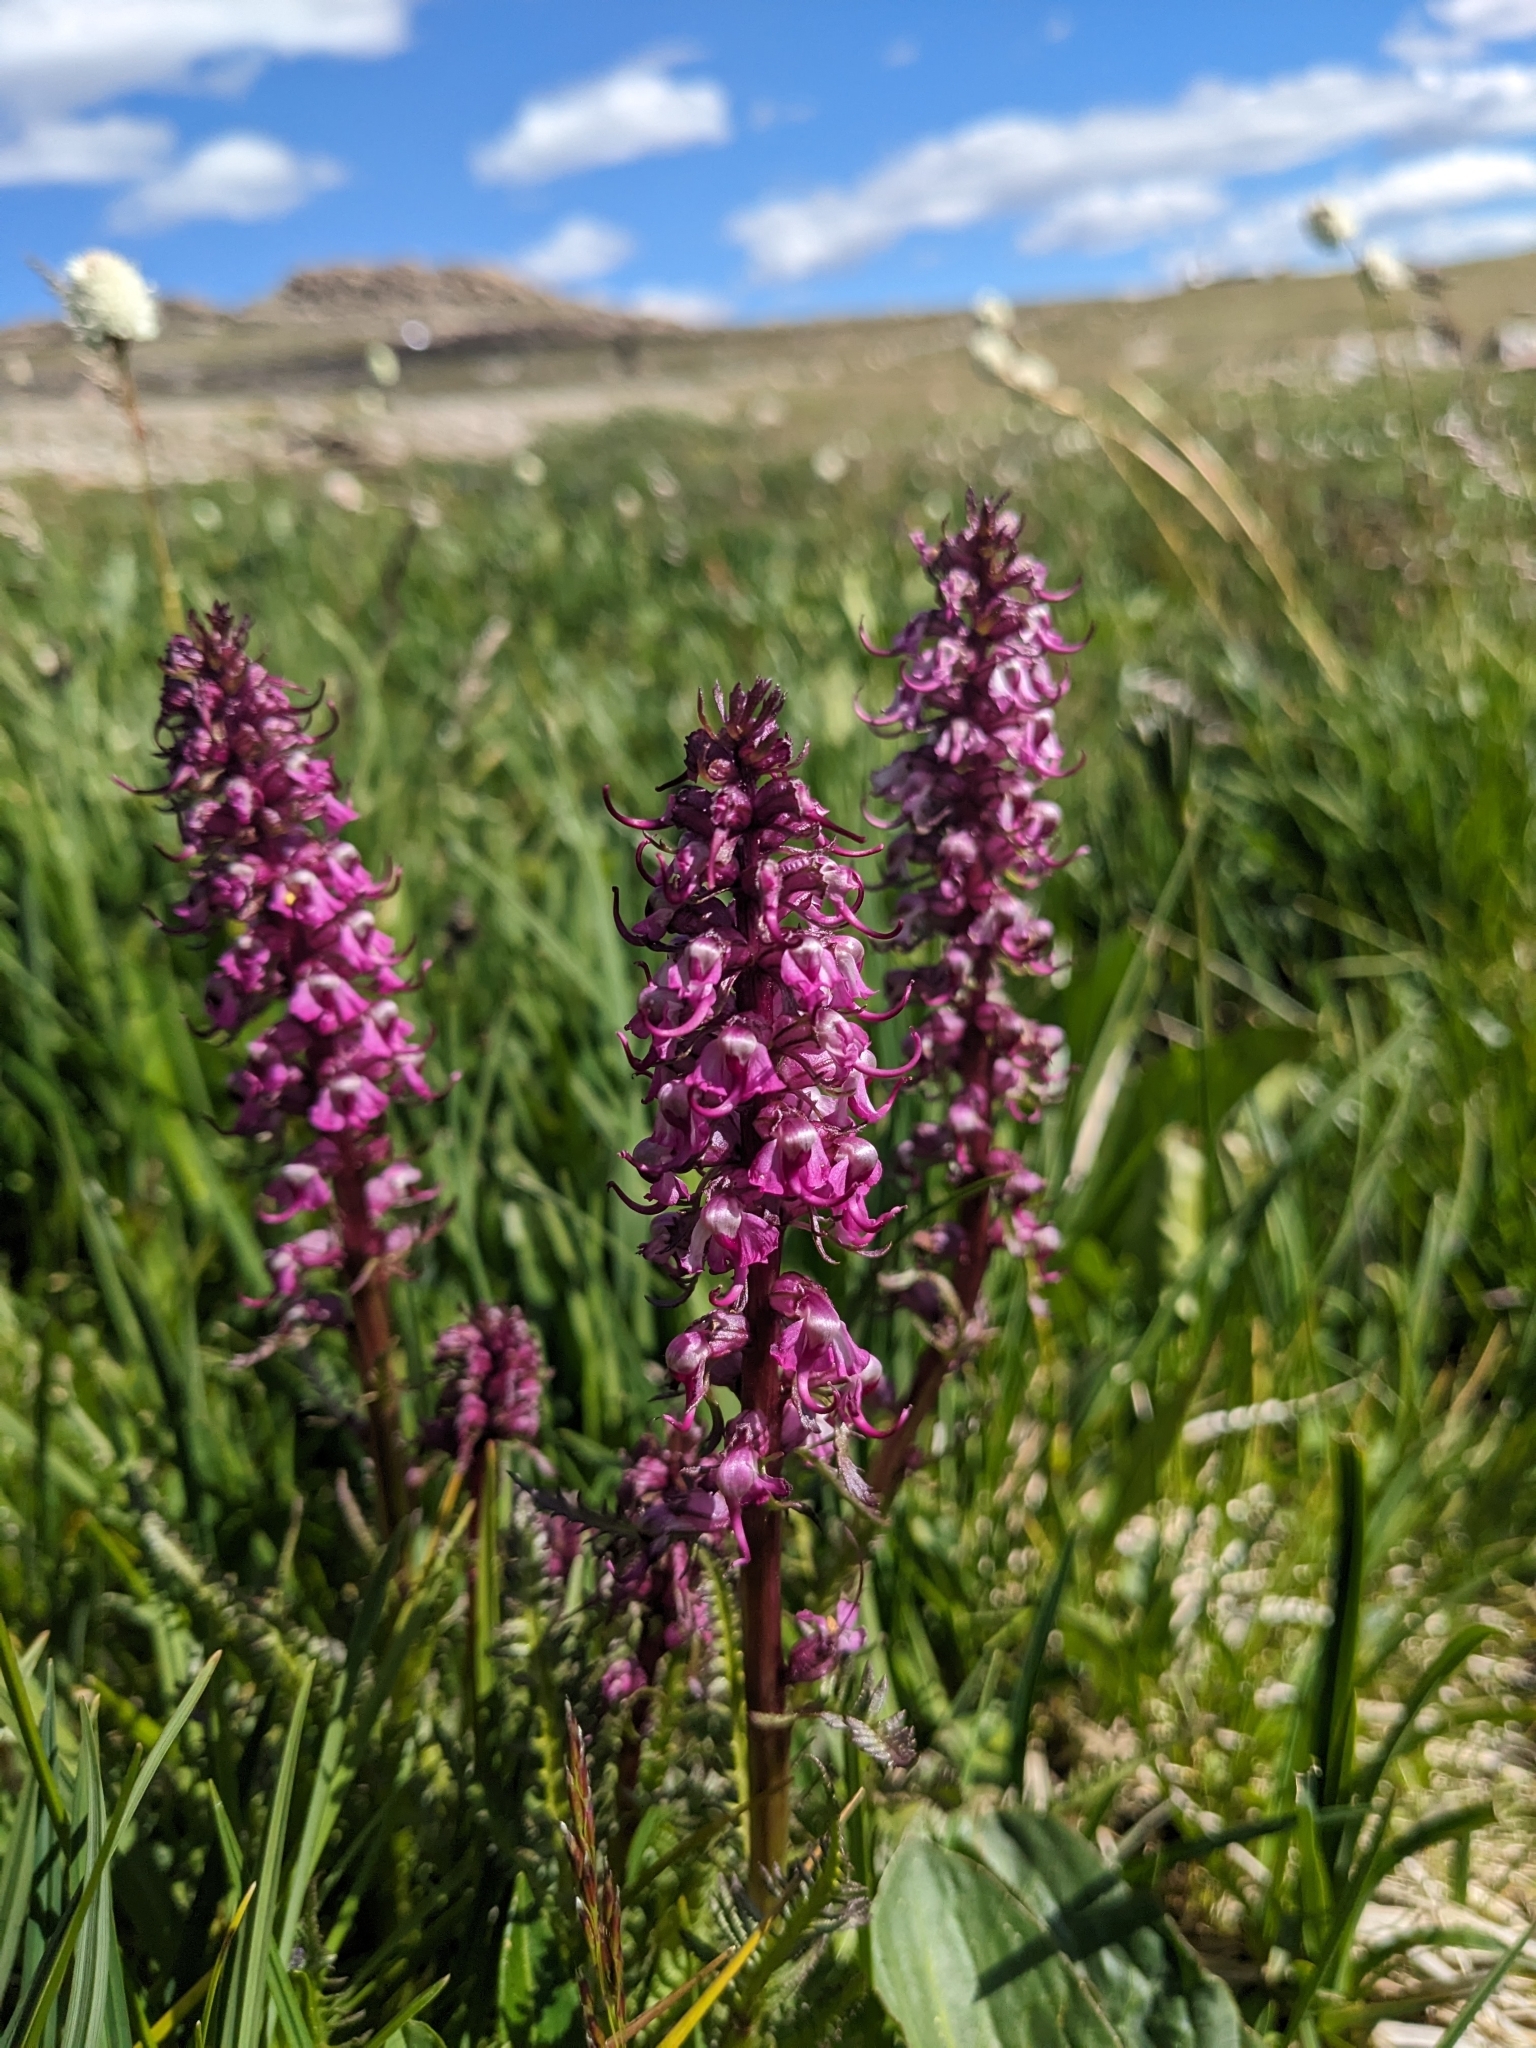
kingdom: Plantae
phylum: Tracheophyta
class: Magnoliopsida
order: Lamiales
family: Orobanchaceae
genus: Pedicularis
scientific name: Pedicularis groenlandica
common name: Elephant's-head
